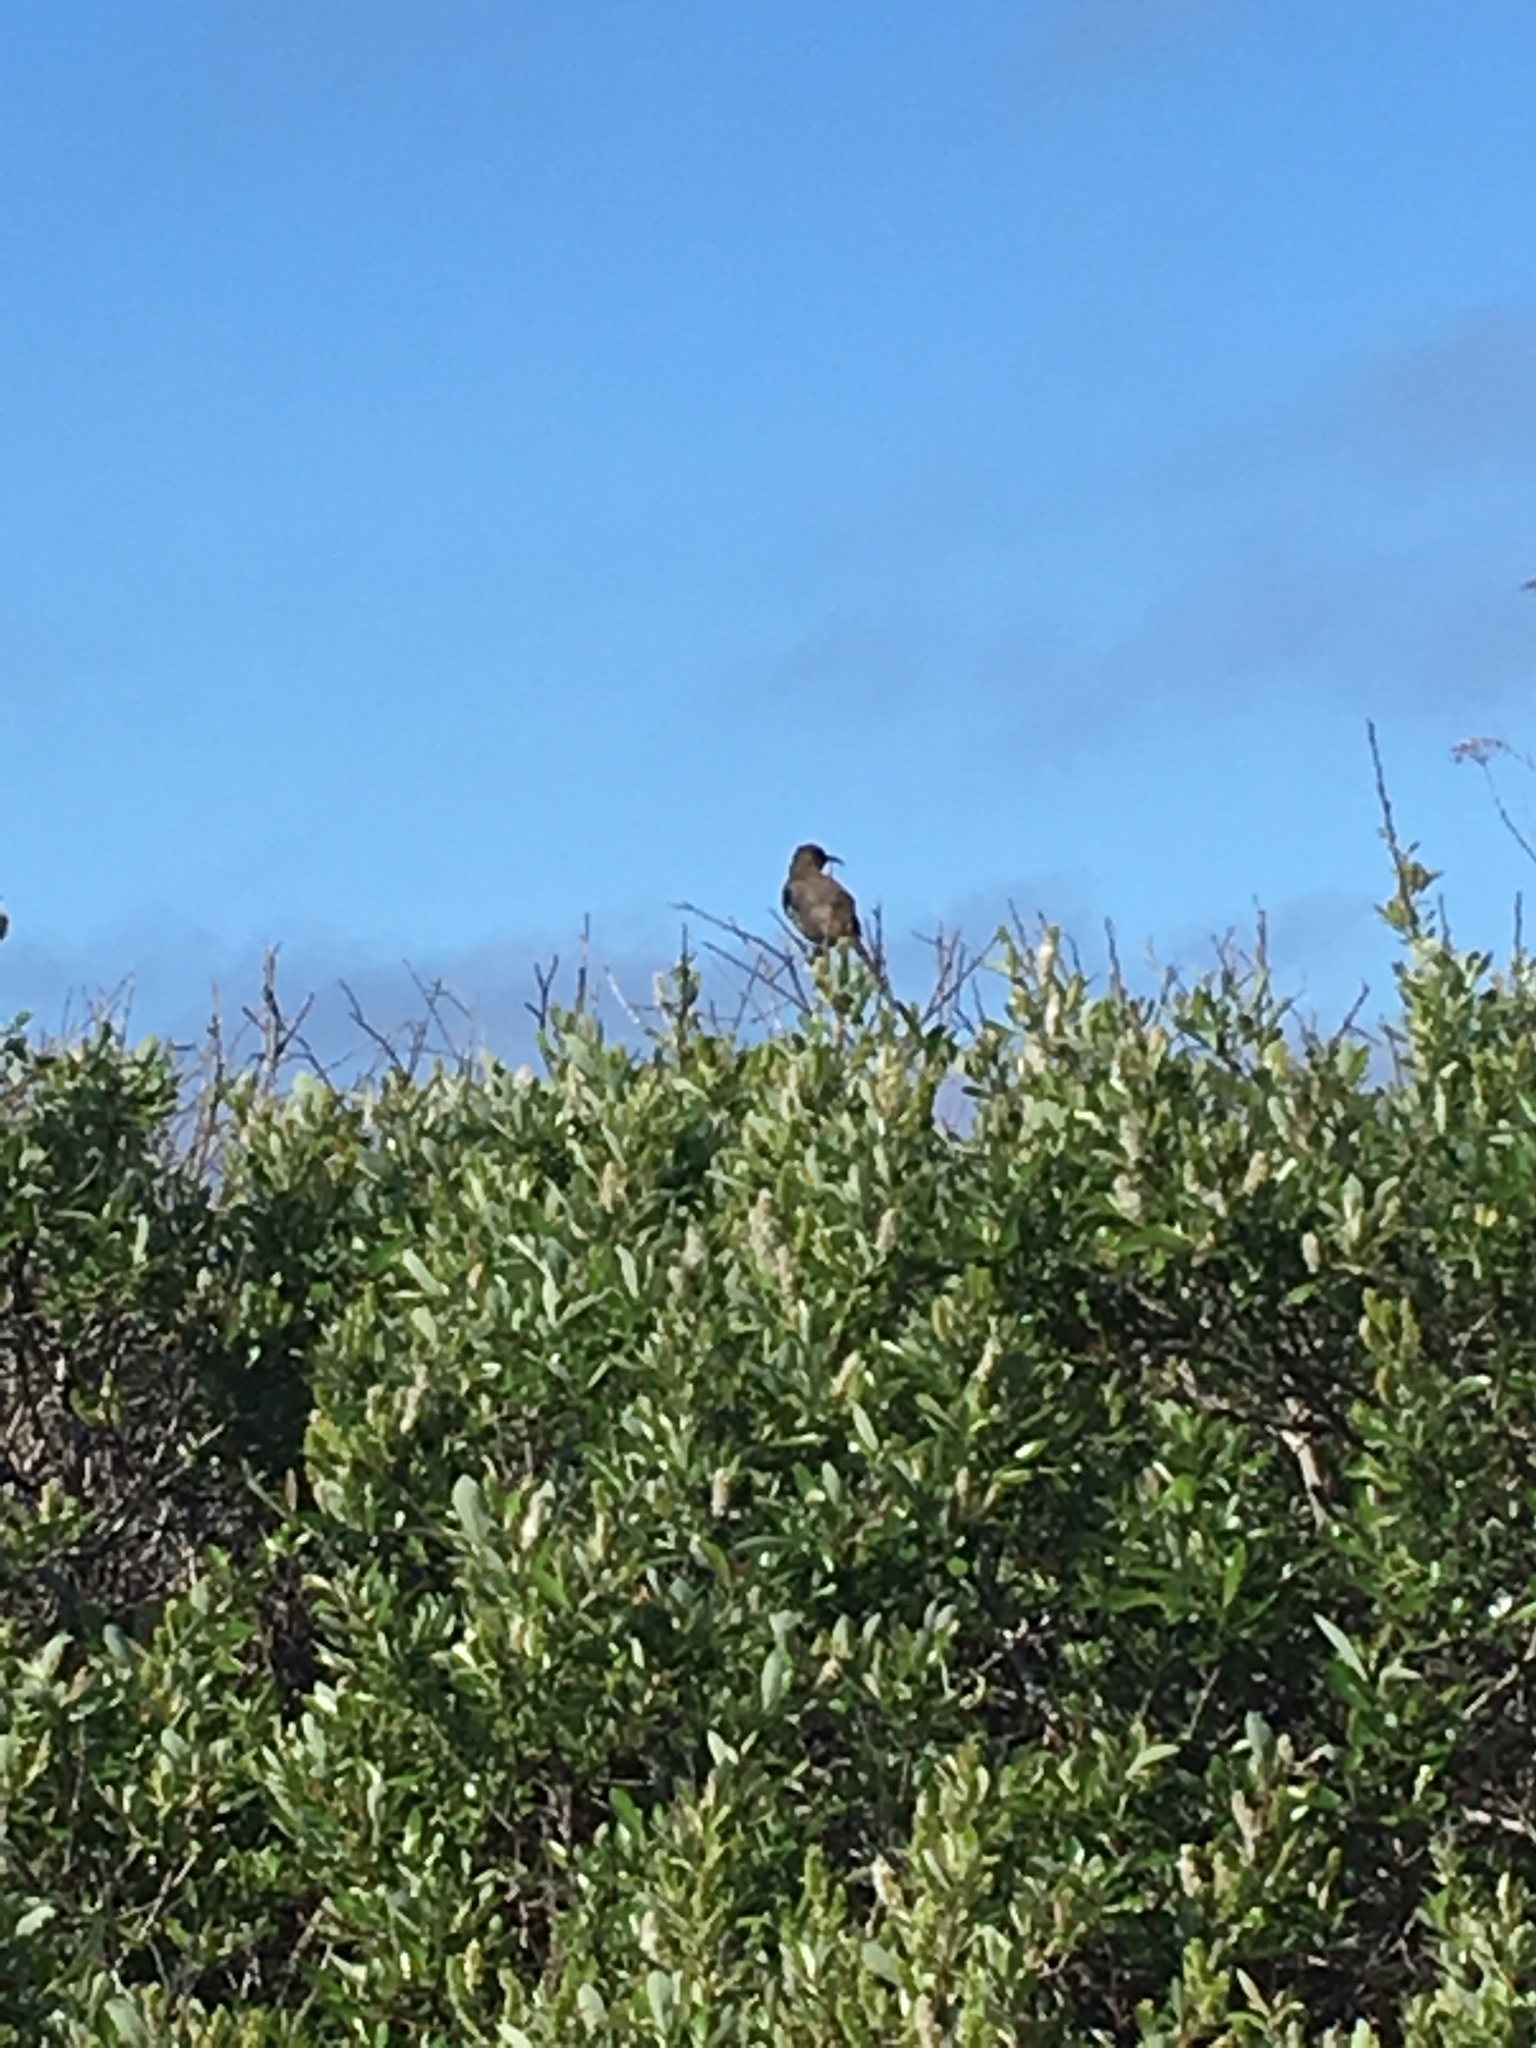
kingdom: Animalia
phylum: Chordata
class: Aves
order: Passeriformes
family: Mimidae
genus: Toxostoma
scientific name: Toxostoma redivivum
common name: California thrasher
